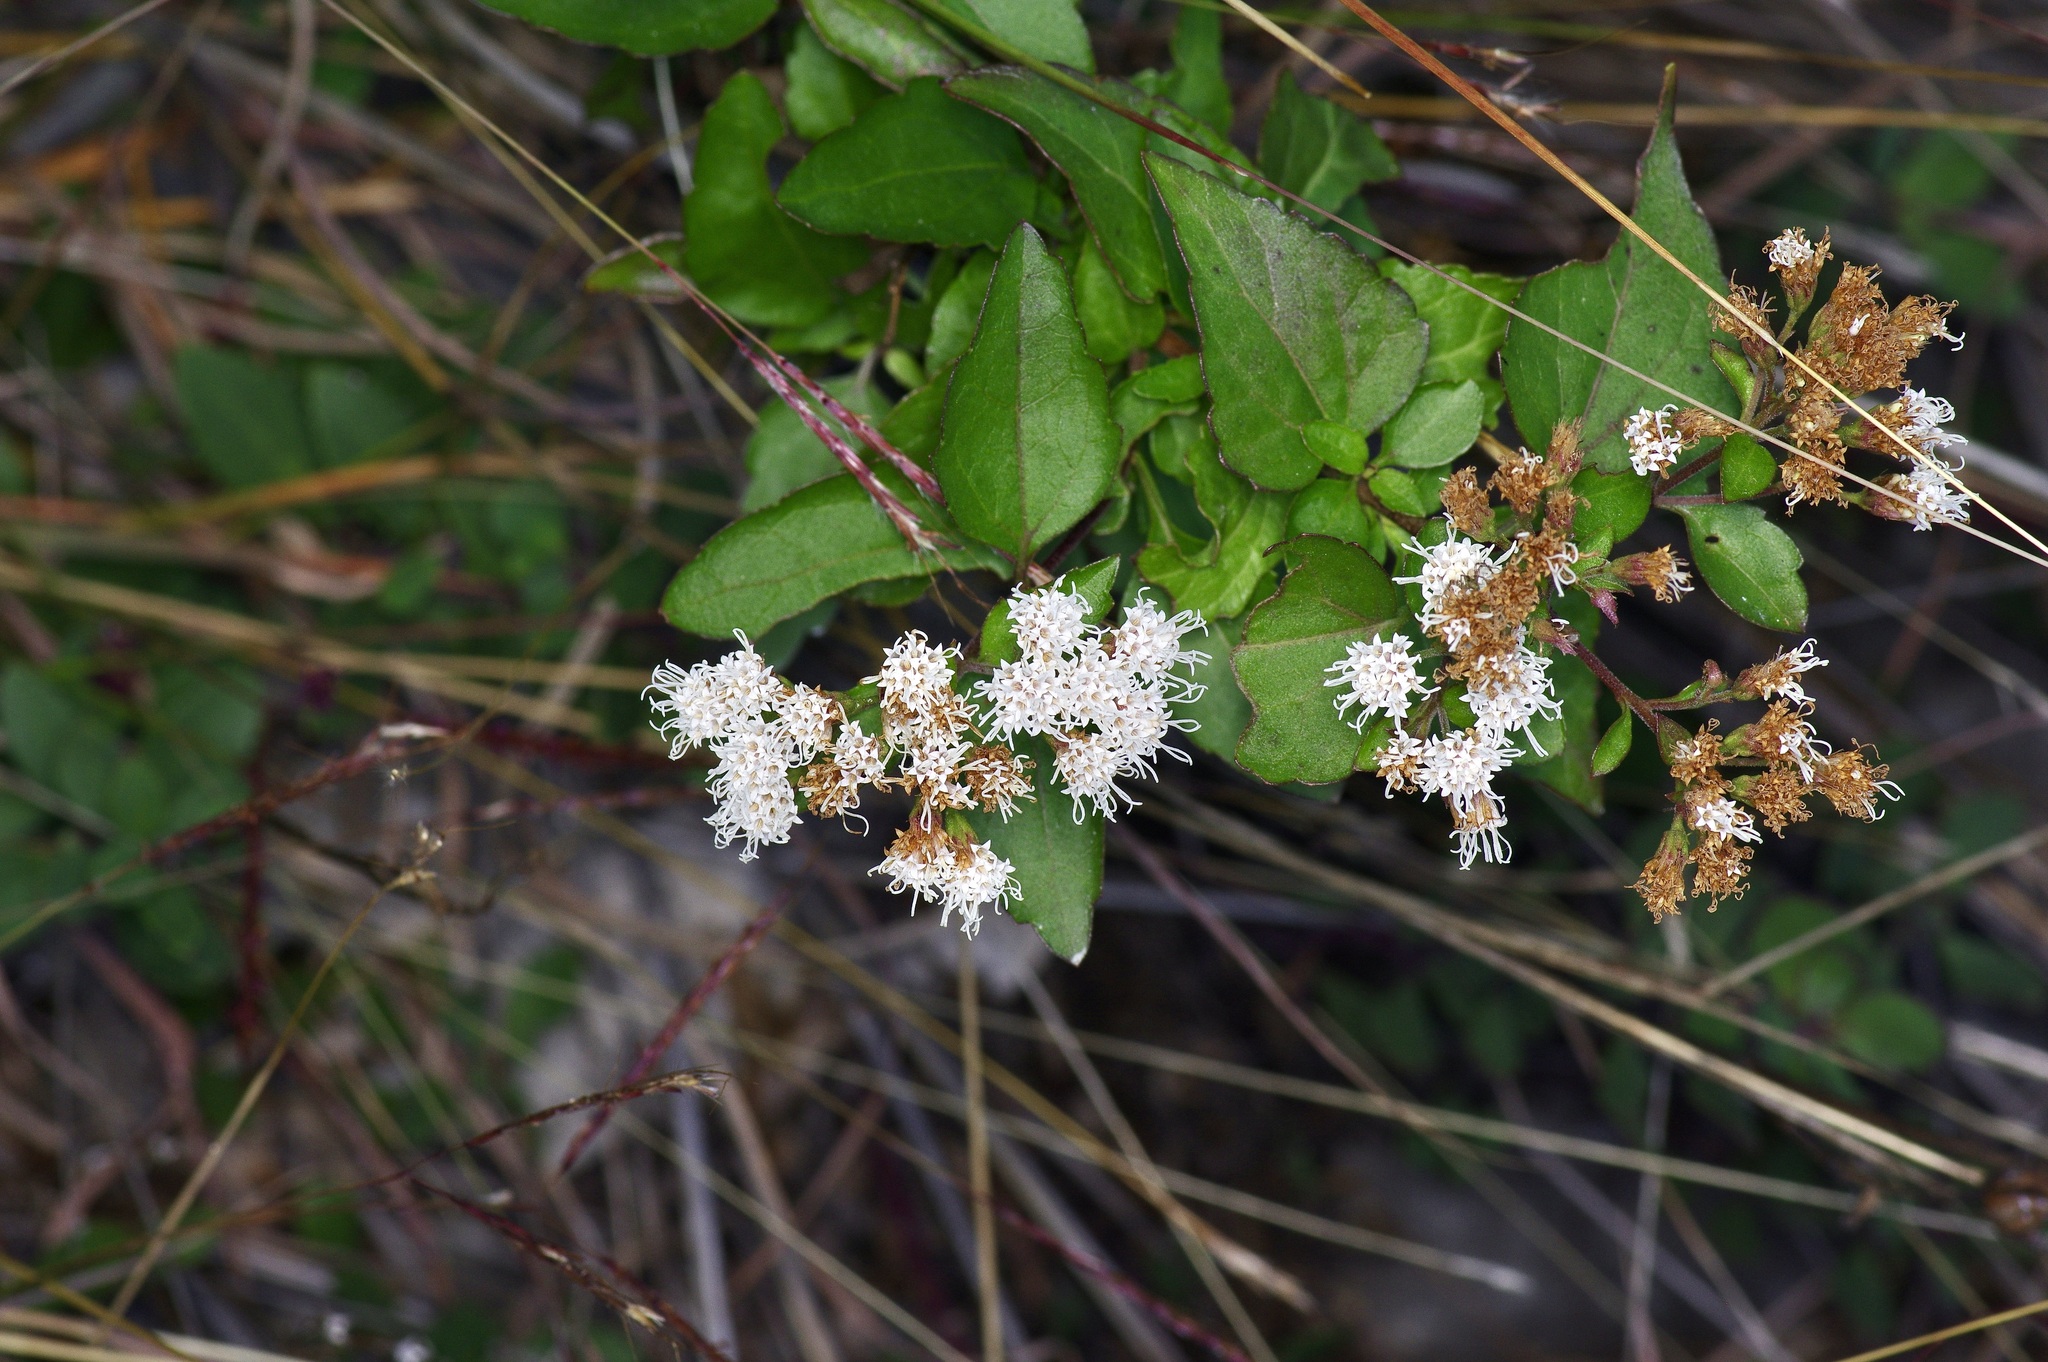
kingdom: Plantae
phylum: Tracheophyta
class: Magnoliopsida
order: Asterales
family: Asteraceae
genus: Ageratina
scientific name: Ageratina havanensis
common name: Havana snakeroot
